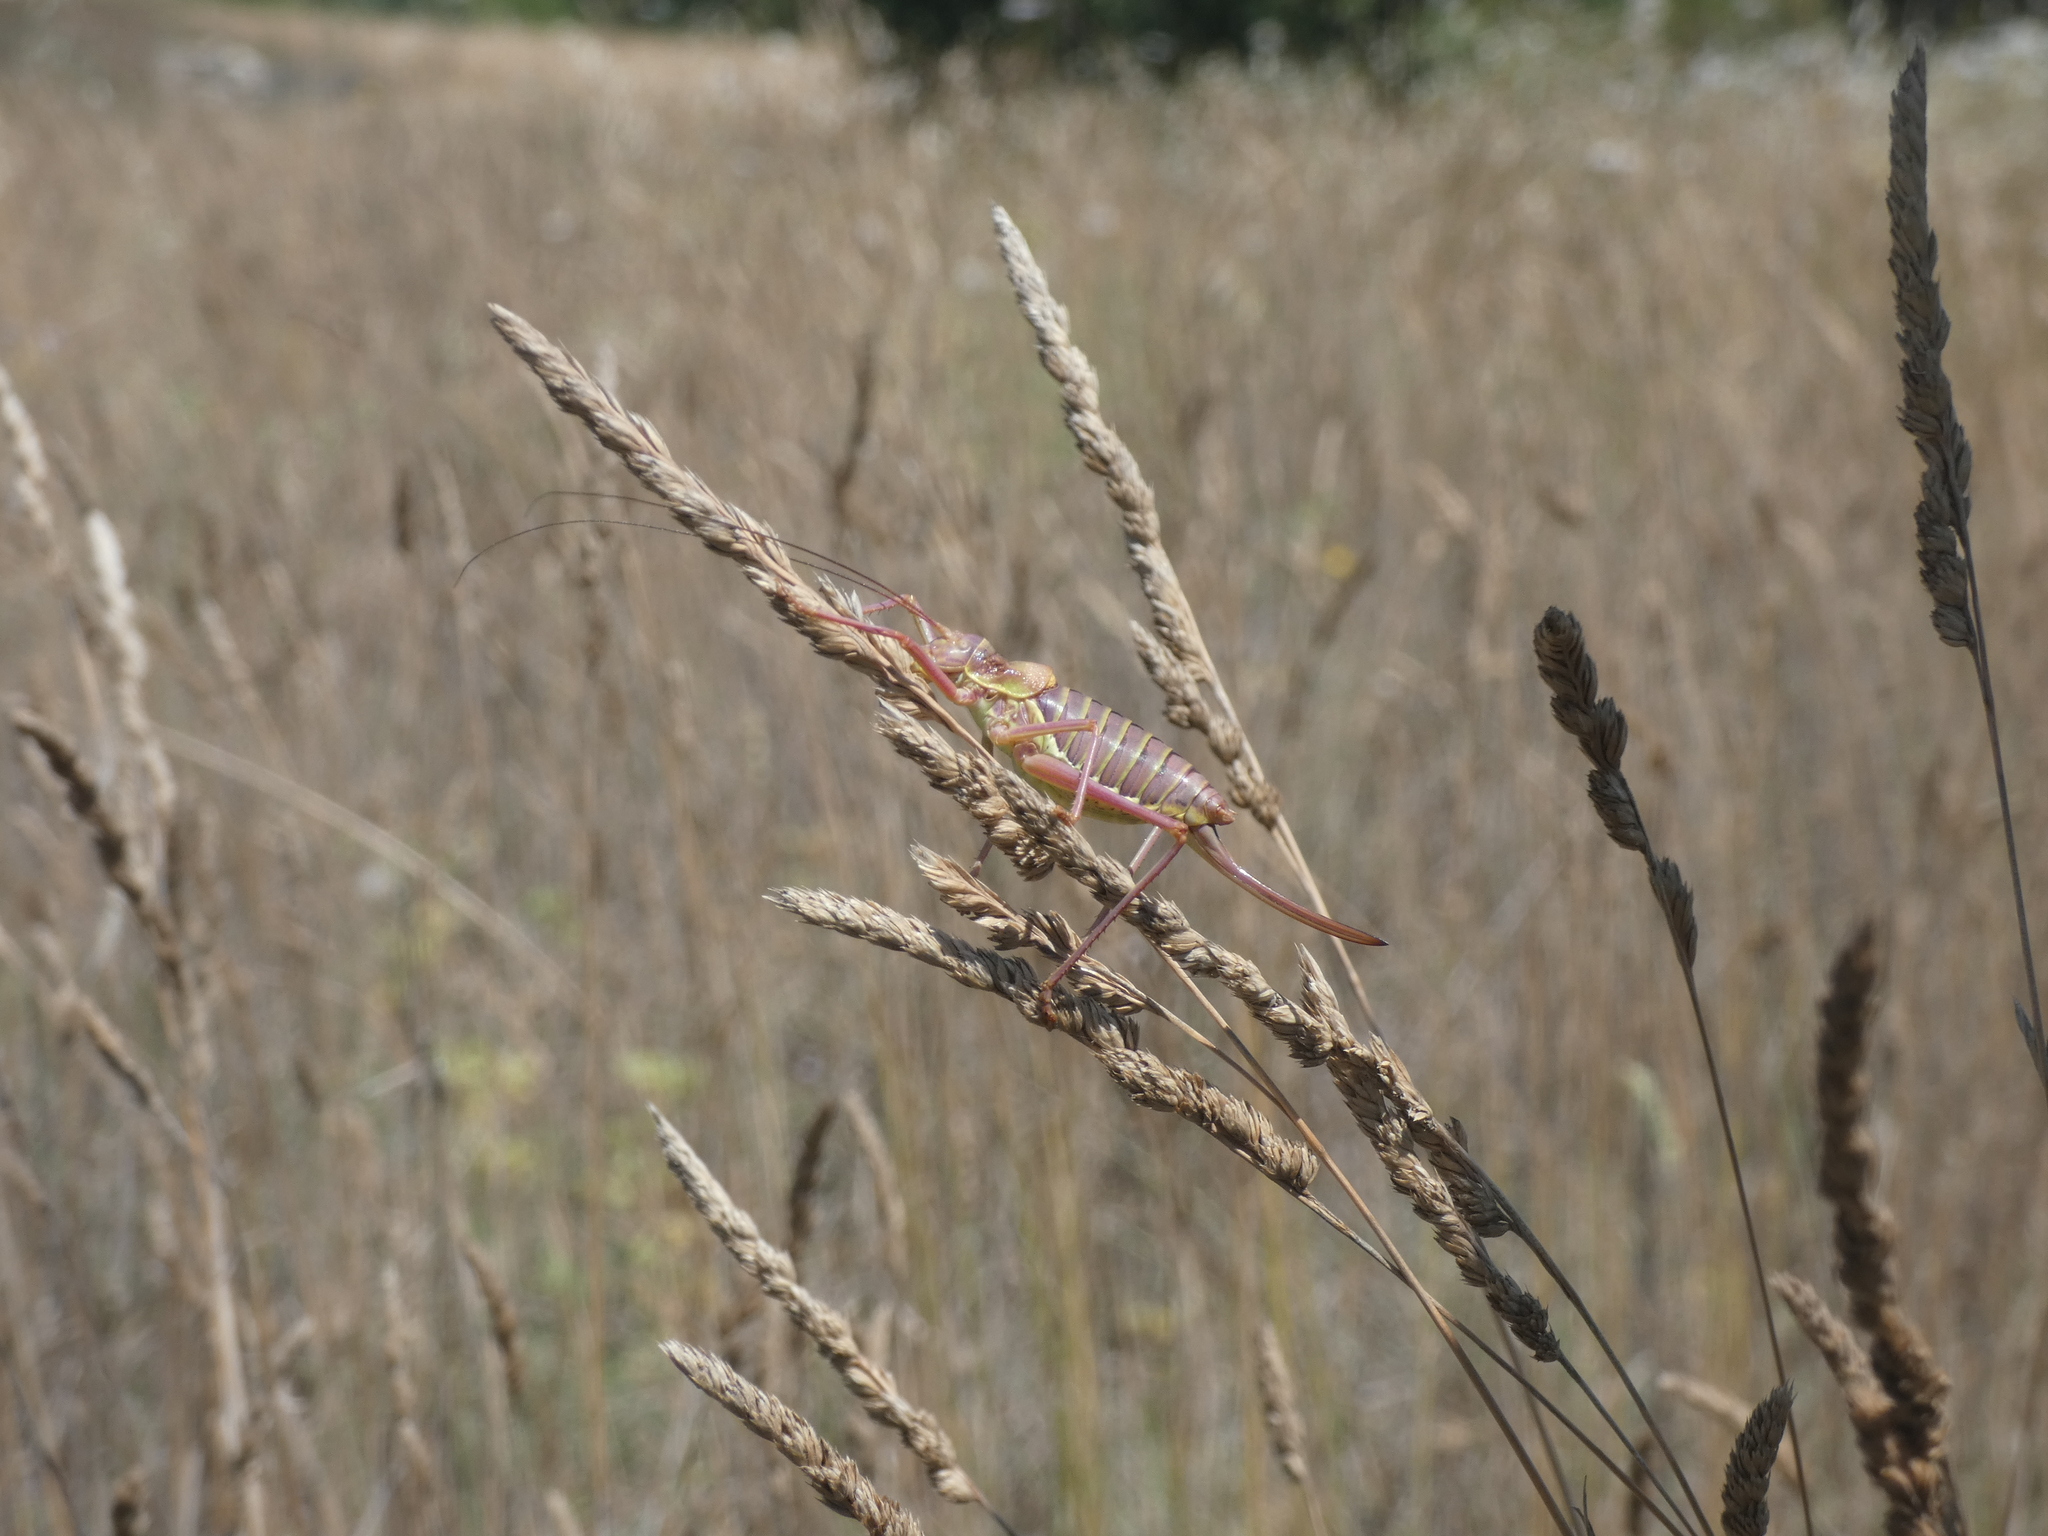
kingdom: Animalia
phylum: Arthropoda
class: Insecta
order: Orthoptera
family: Tettigoniidae
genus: Ephippiger
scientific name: Ephippiger diurnus
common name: Western saddle bush-cricket
